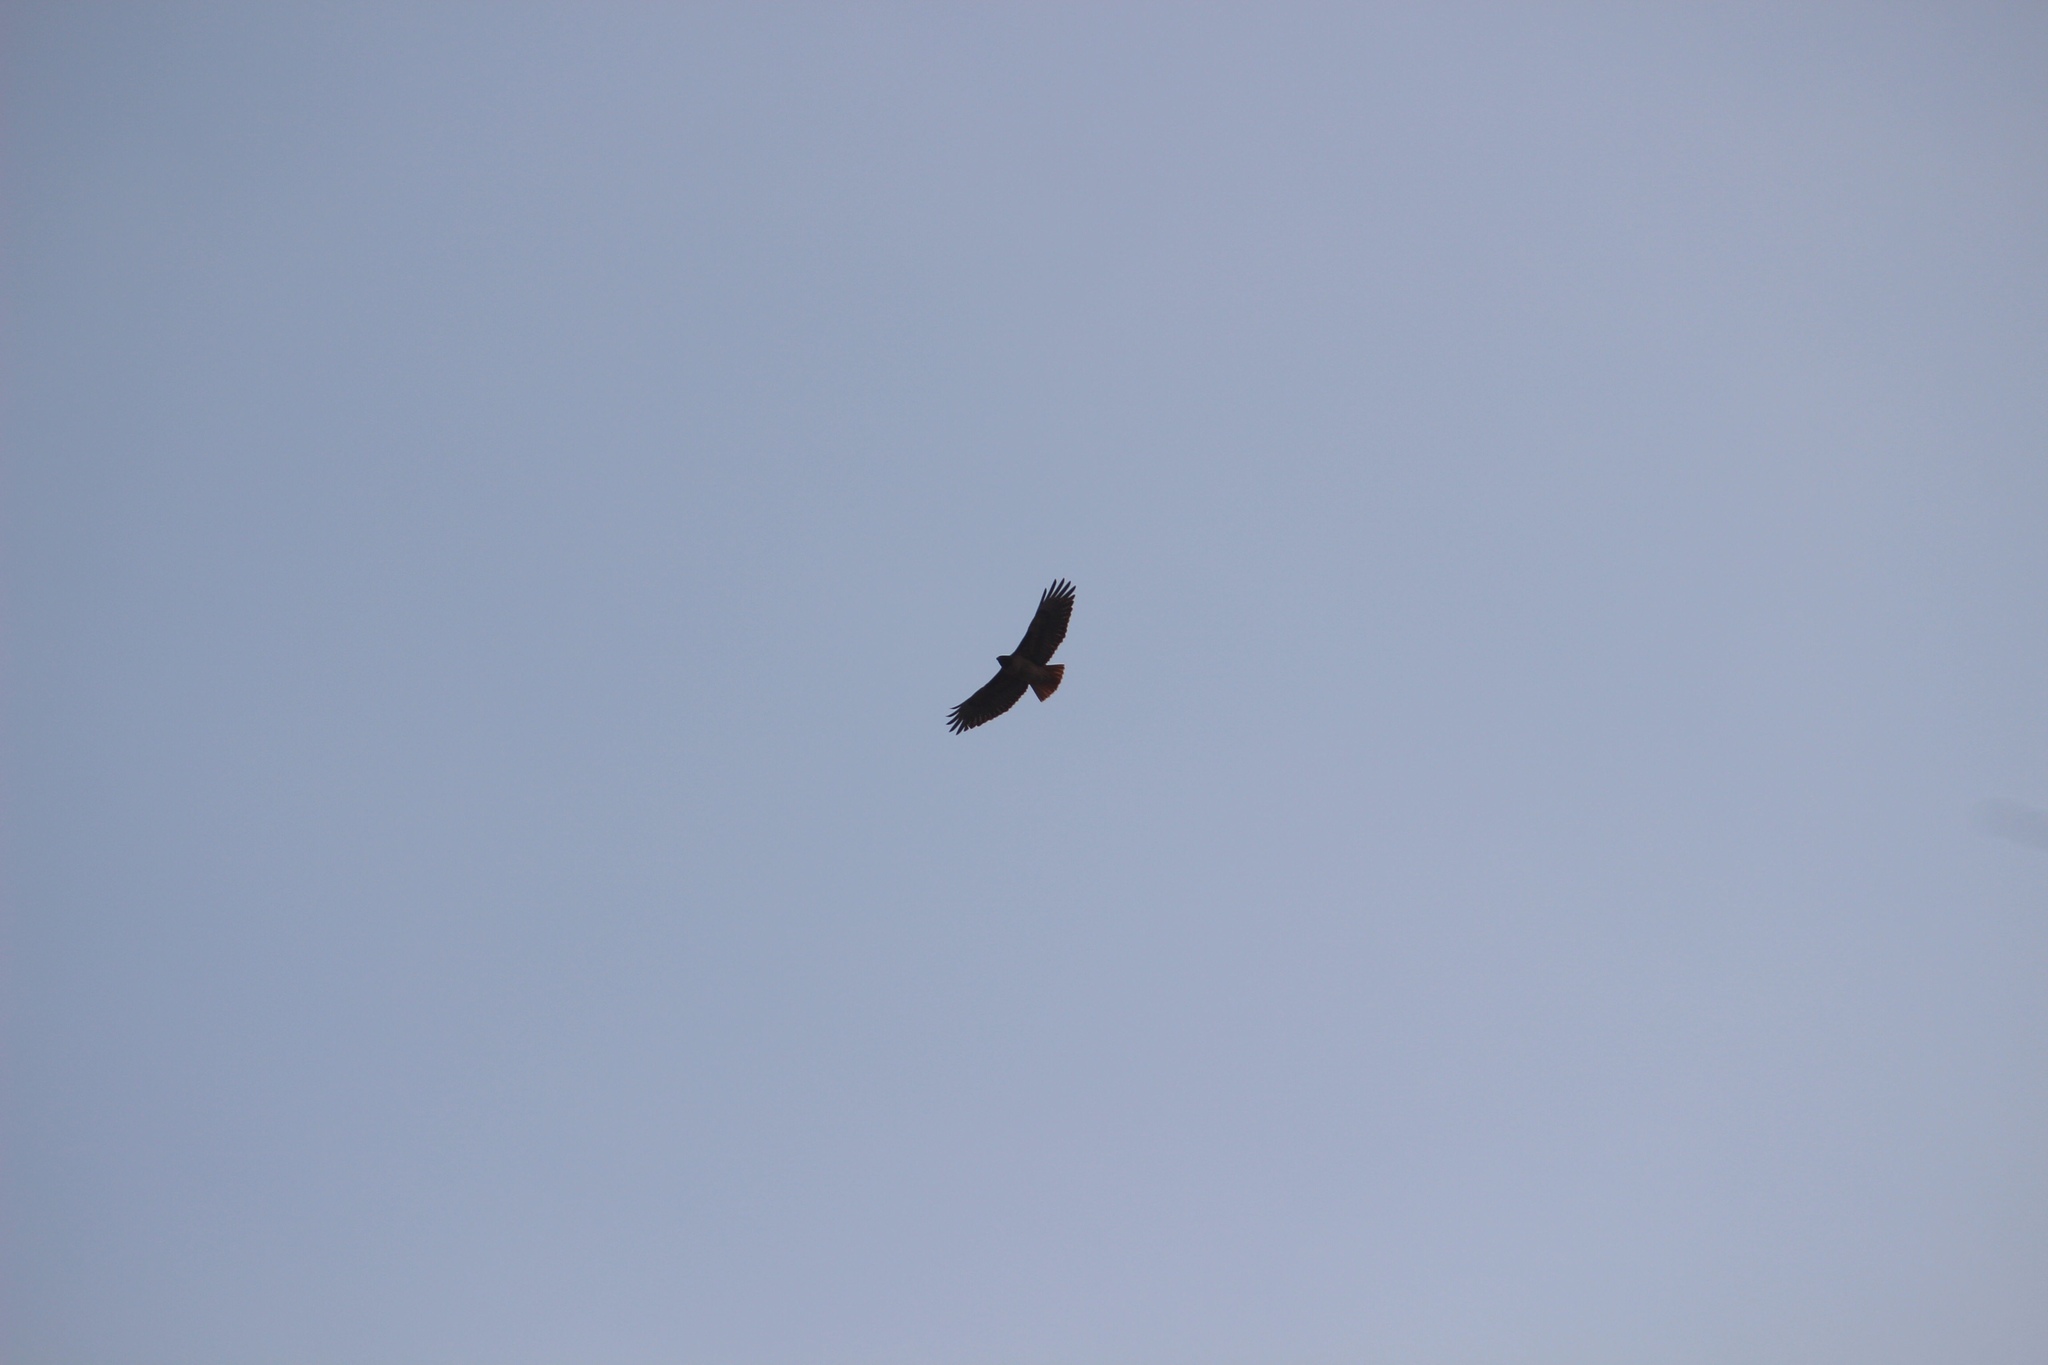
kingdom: Animalia
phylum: Chordata
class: Aves
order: Accipitriformes
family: Accipitridae
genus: Buteo
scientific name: Buteo jamaicensis
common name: Red-tailed hawk
